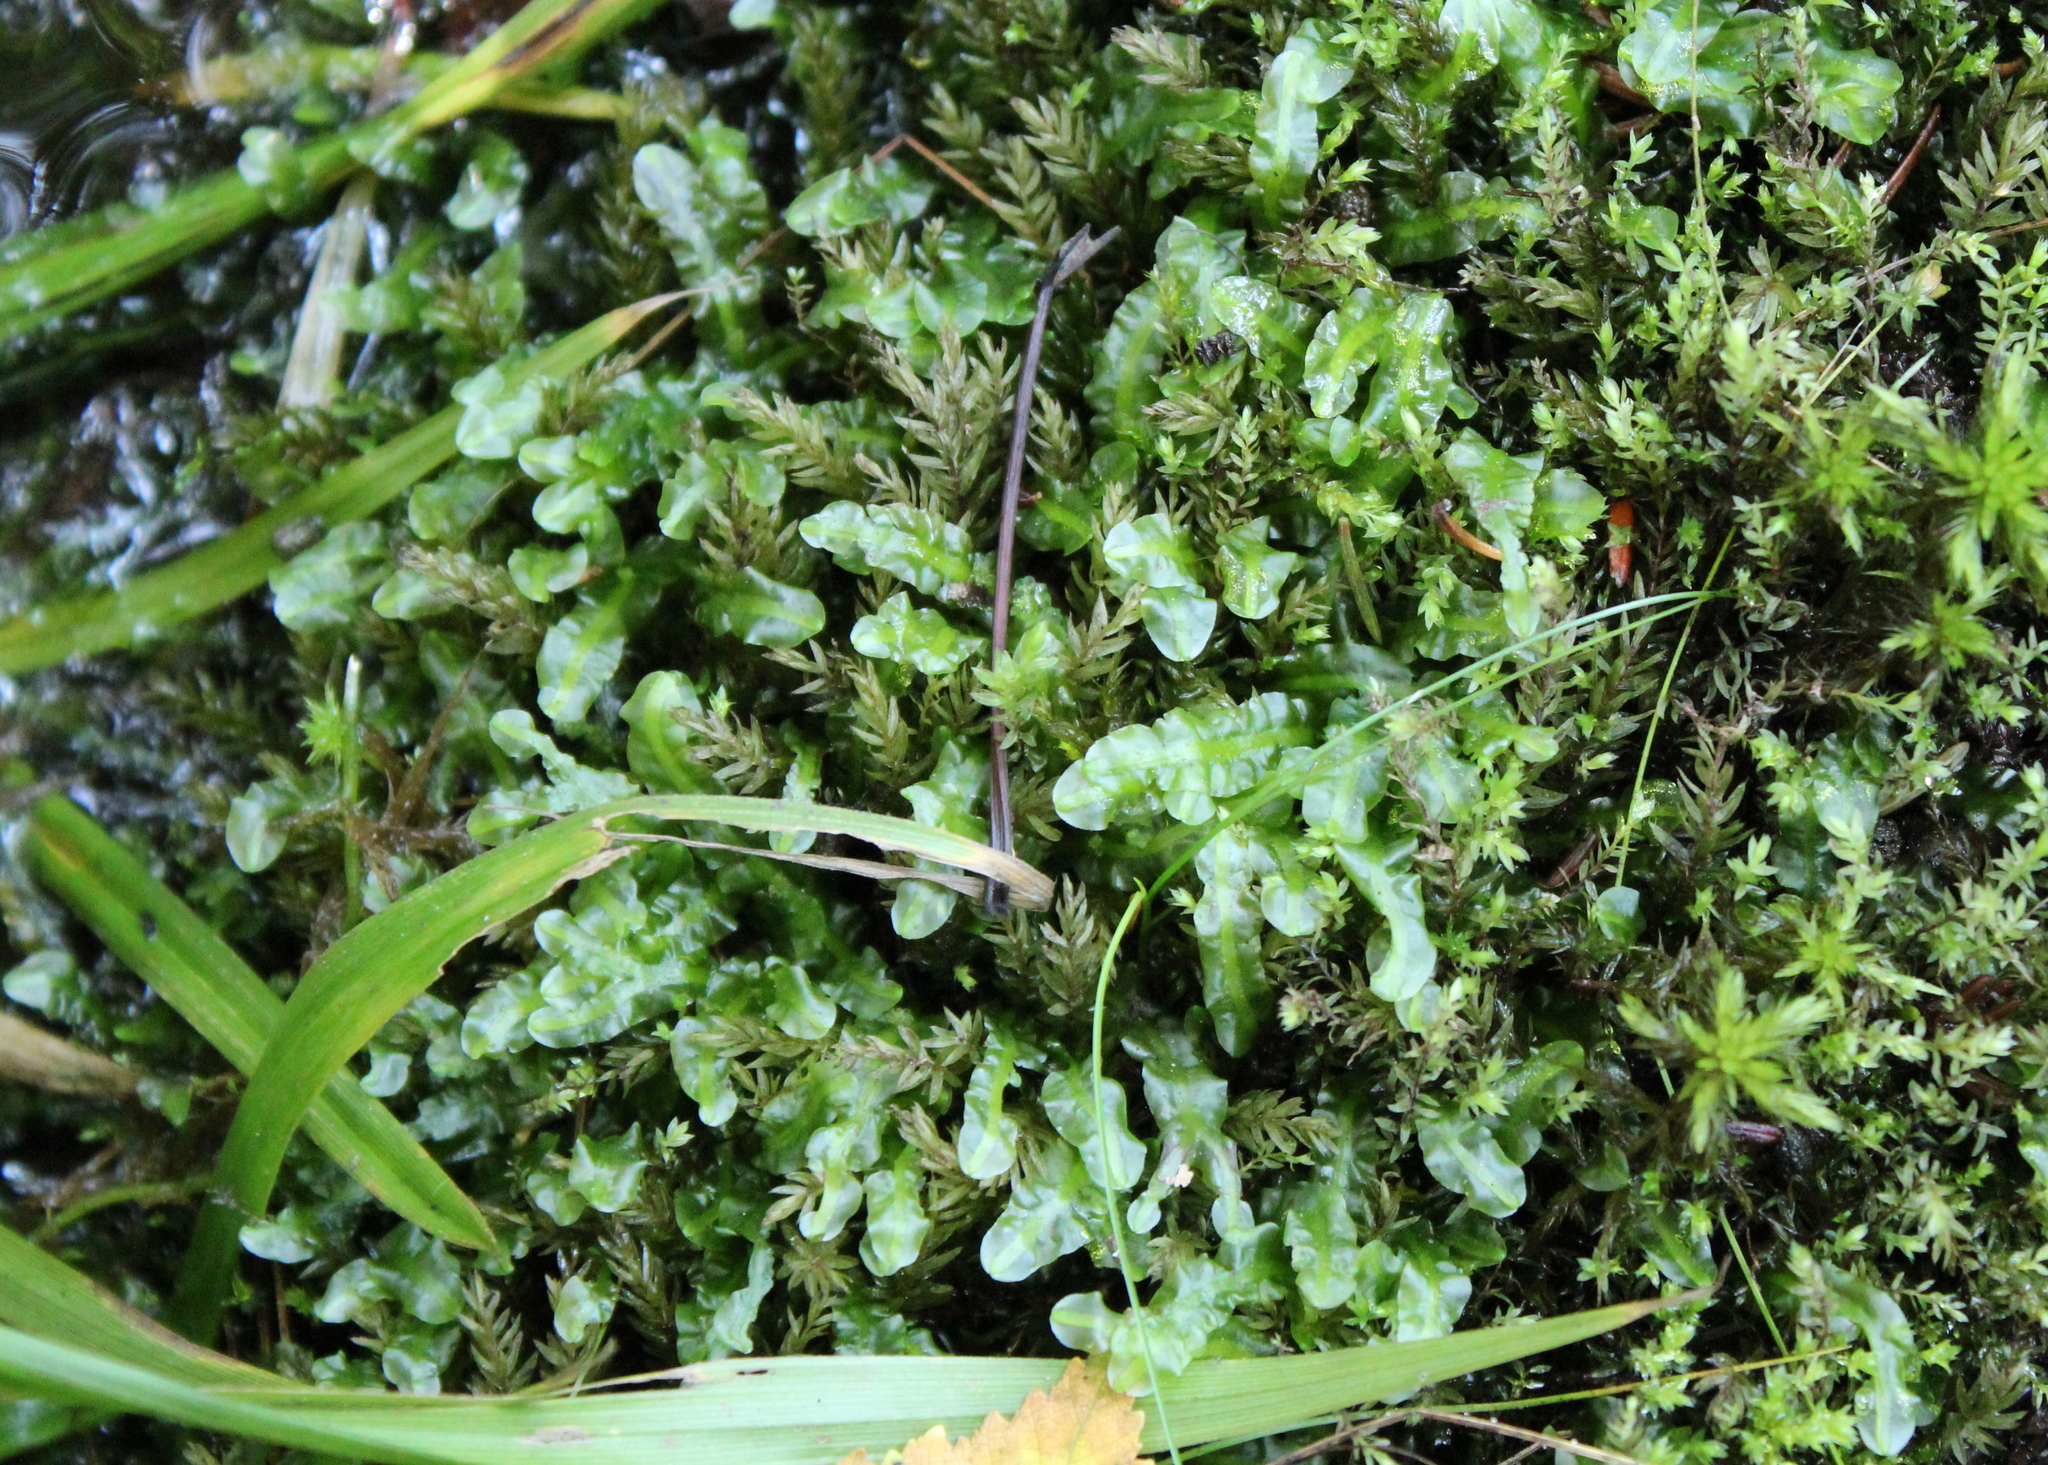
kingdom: Plantae
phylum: Marchantiophyta
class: Jungermanniopsida
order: Pallaviciniales
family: Pallaviciniaceae
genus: Pallavicinia
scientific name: Pallavicinia lyellii
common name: Veilwort
